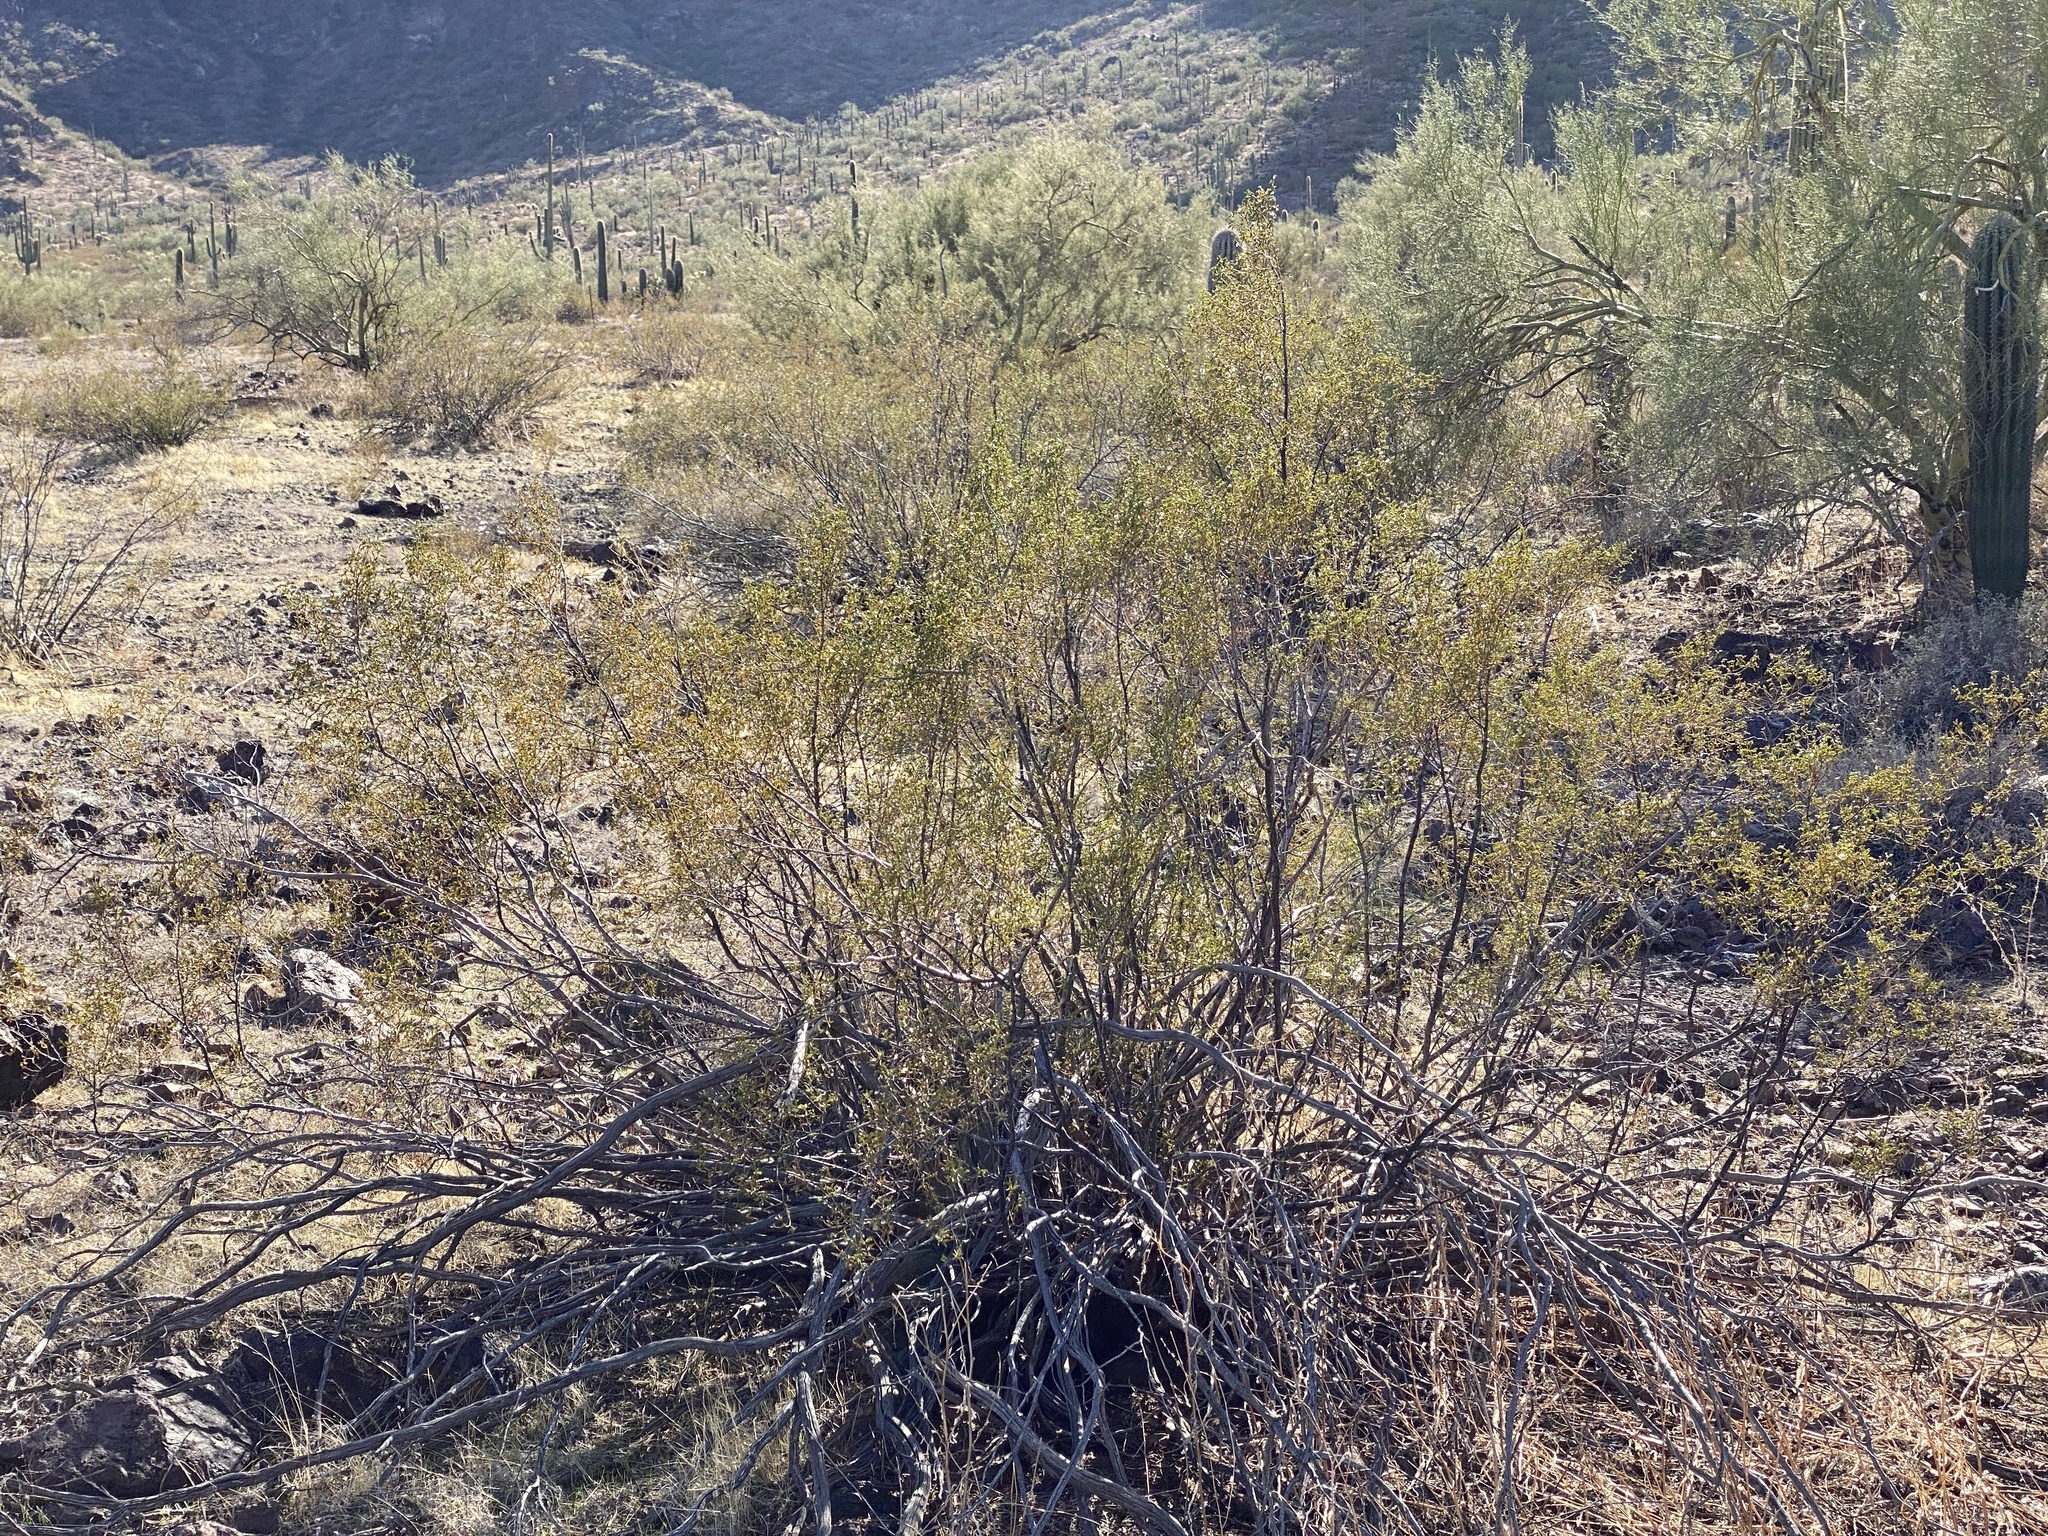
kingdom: Plantae
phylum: Tracheophyta
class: Magnoliopsida
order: Zygophyllales
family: Zygophyllaceae
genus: Larrea
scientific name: Larrea tridentata
